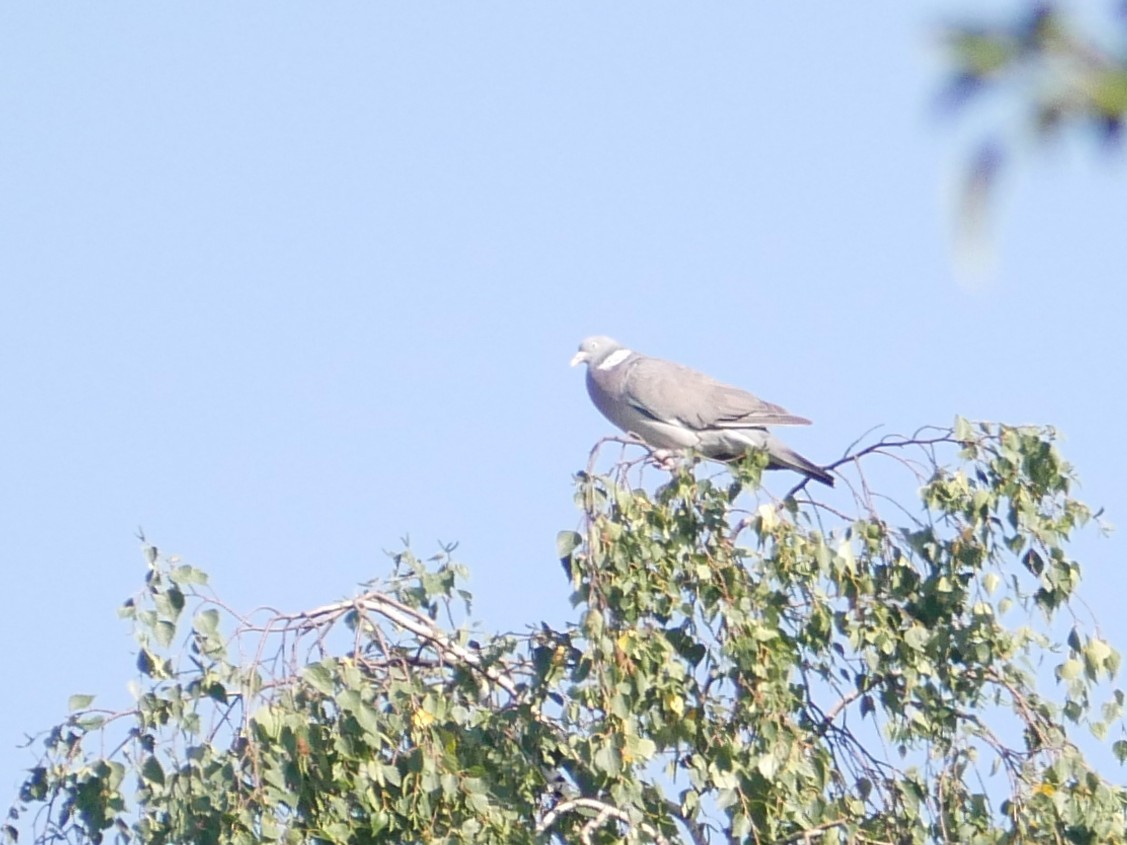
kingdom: Animalia
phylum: Chordata
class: Aves
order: Columbiformes
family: Columbidae
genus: Columba
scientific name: Columba palumbus
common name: Common wood pigeon
